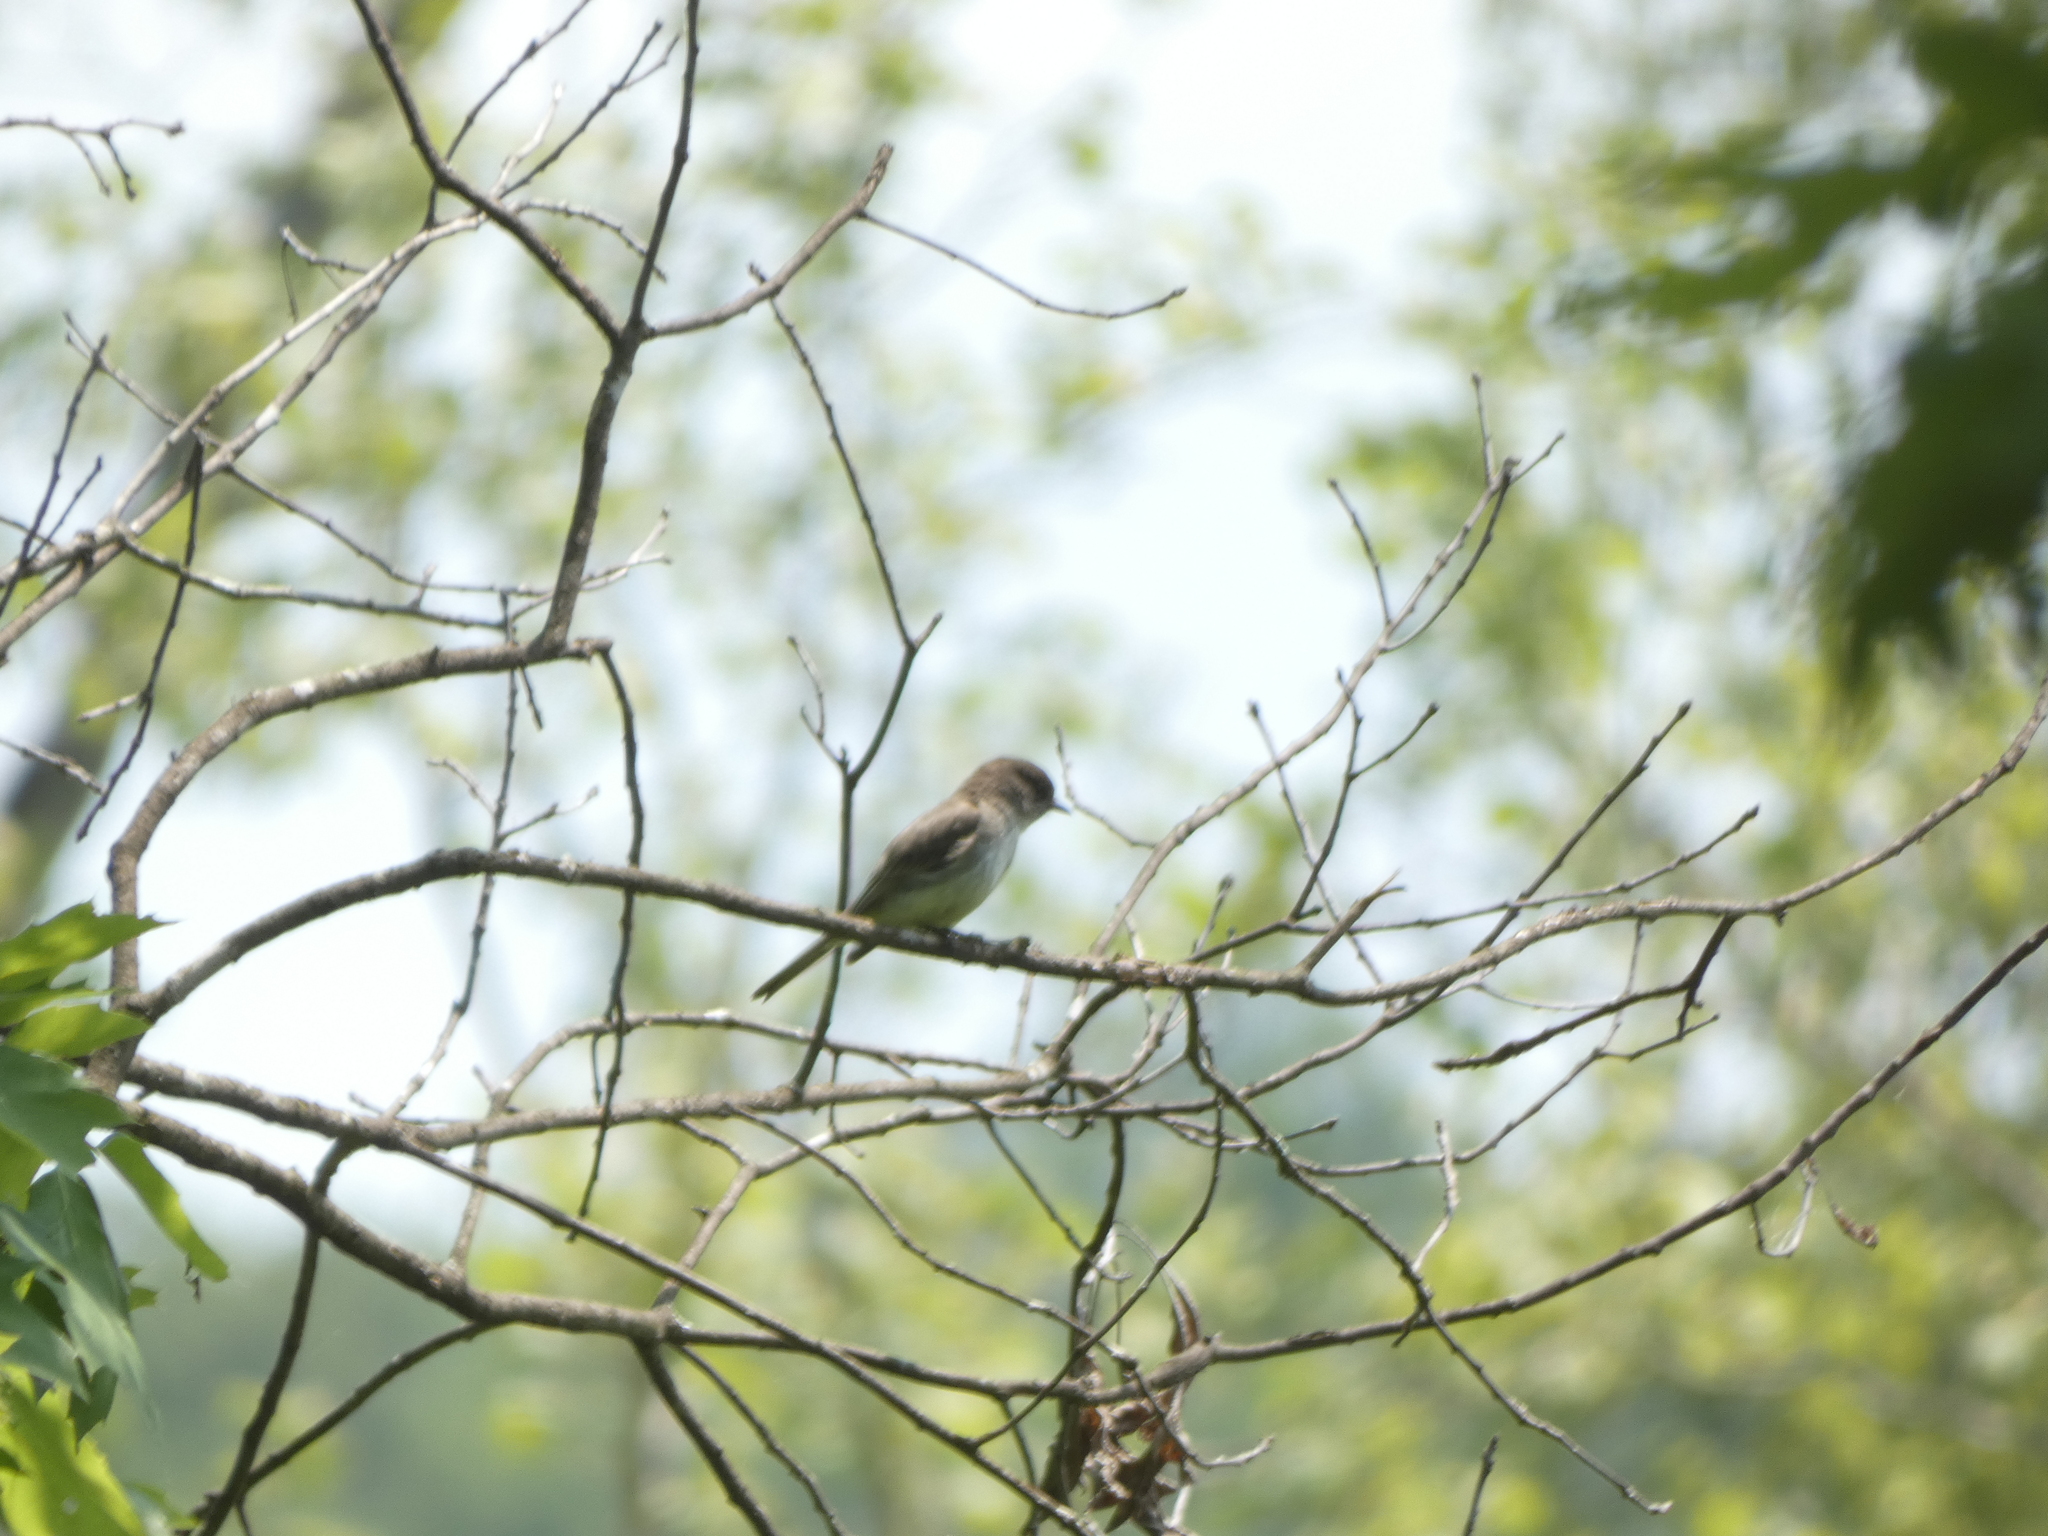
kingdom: Animalia
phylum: Chordata
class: Aves
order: Passeriformes
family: Tyrannidae
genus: Sayornis
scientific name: Sayornis phoebe
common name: Eastern phoebe
